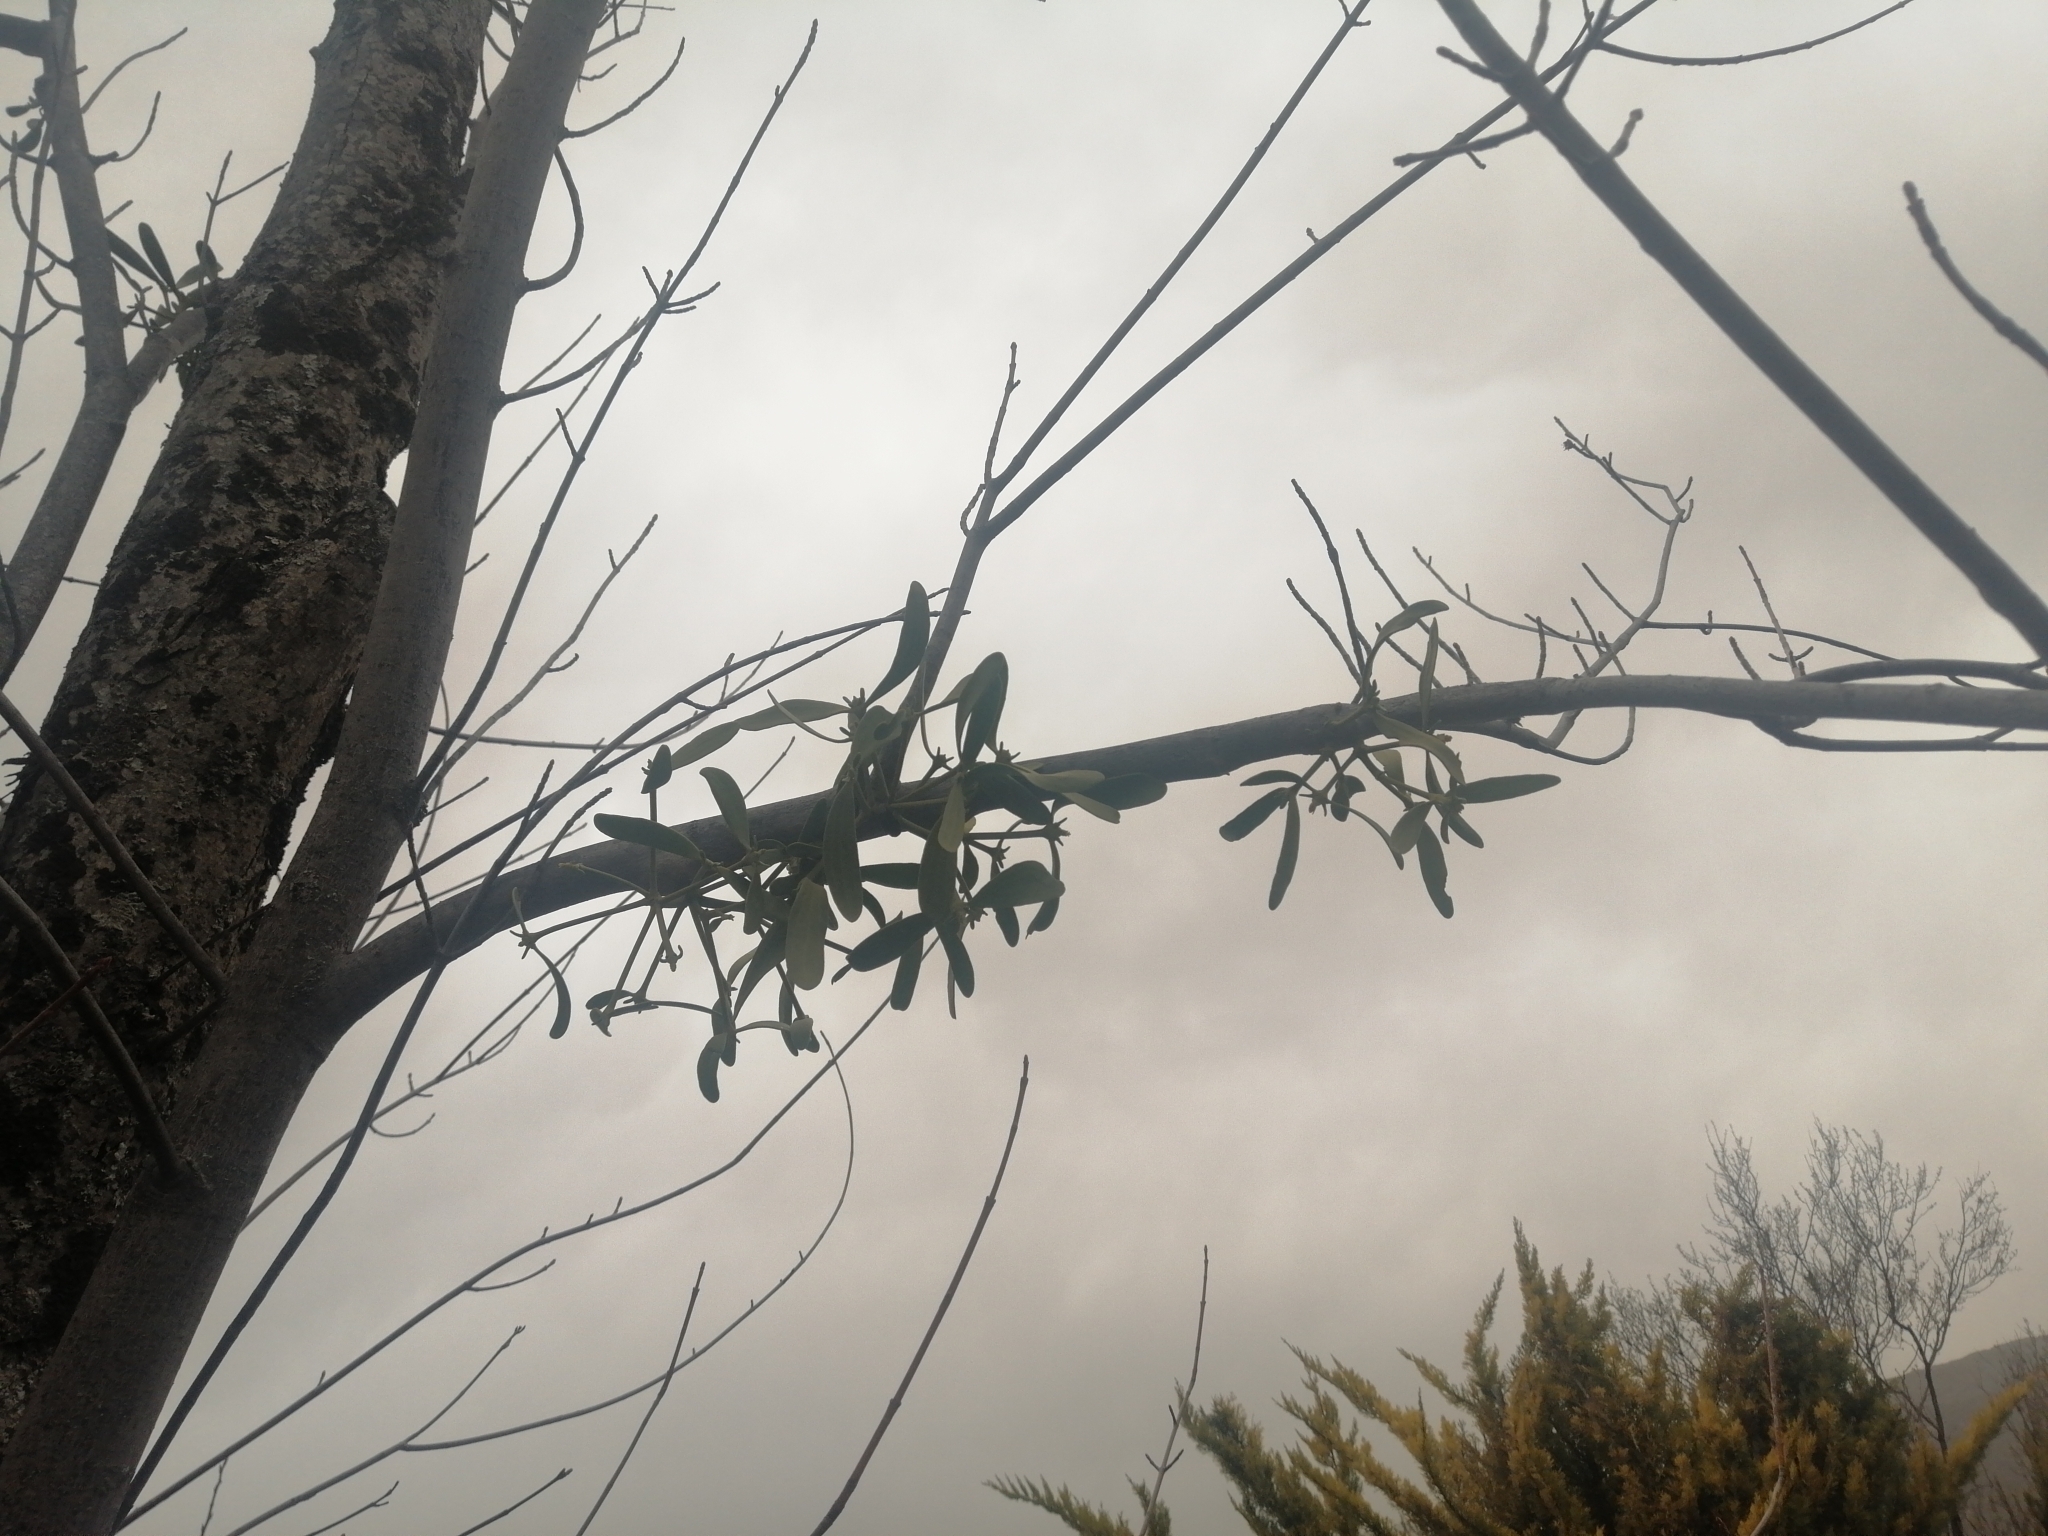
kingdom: Plantae
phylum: Tracheophyta
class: Magnoliopsida
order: Santalales
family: Viscaceae
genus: Viscum
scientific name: Viscum album
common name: Mistletoe
